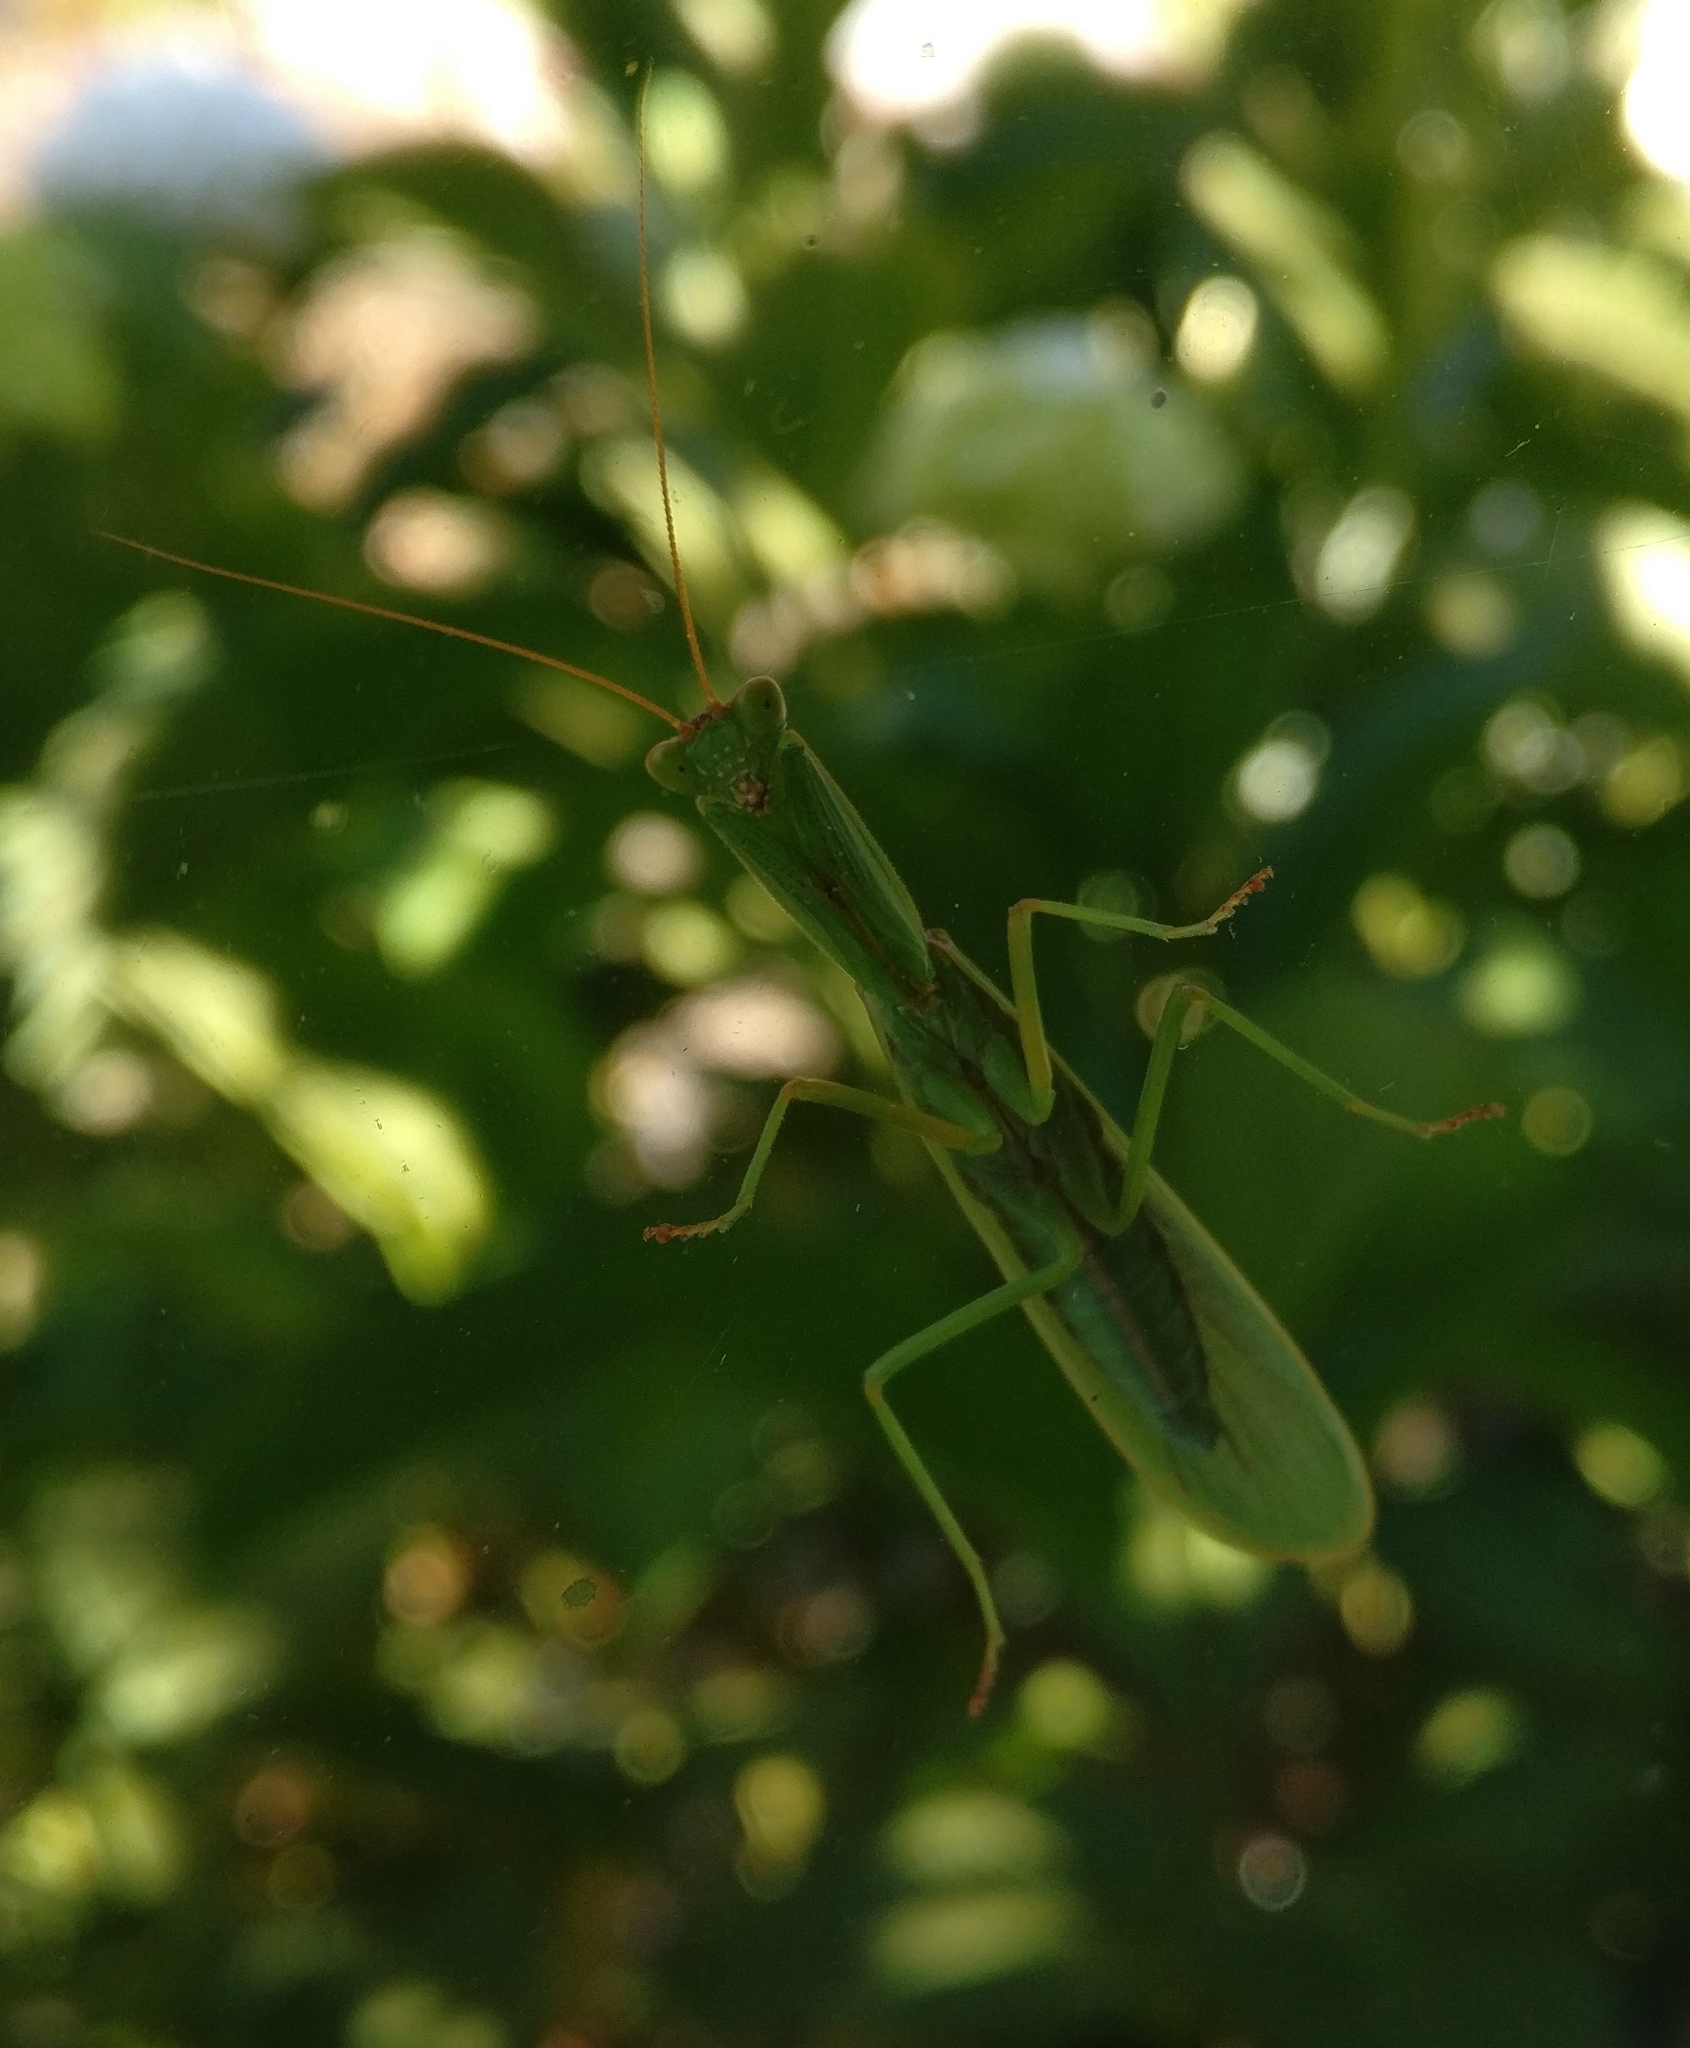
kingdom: Animalia
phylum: Arthropoda
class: Insecta
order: Mantodea
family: Mantidae
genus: Orthodera
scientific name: Orthodera novaezealandiae
